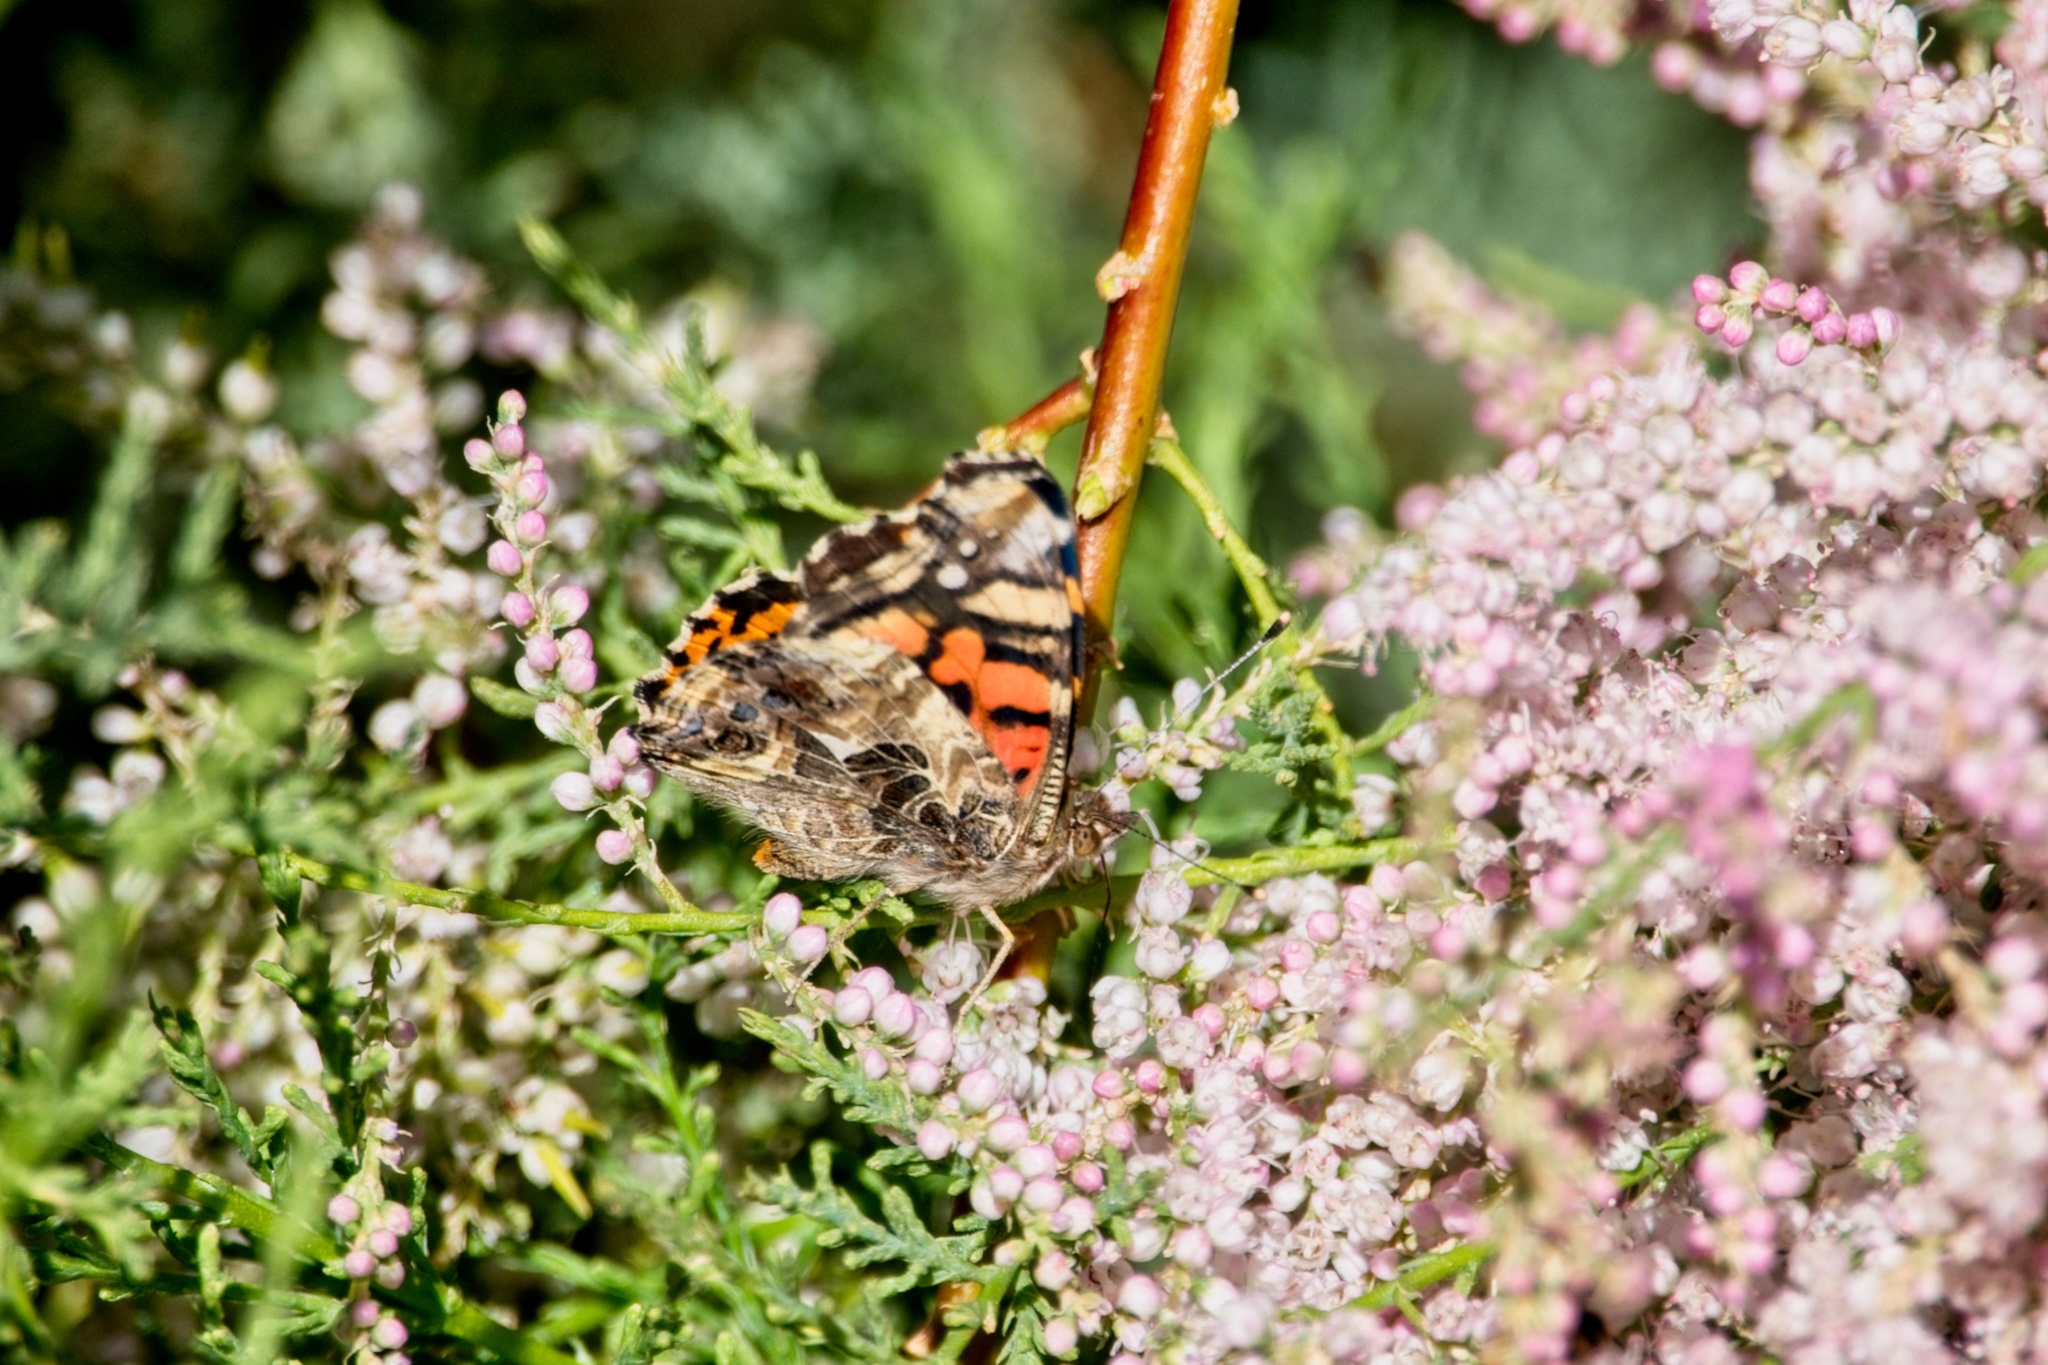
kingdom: Animalia
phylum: Arthropoda
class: Insecta
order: Lepidoptera
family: Nymphalidae
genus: Vanessa
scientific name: Vanessa annabella
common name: West coast lady
